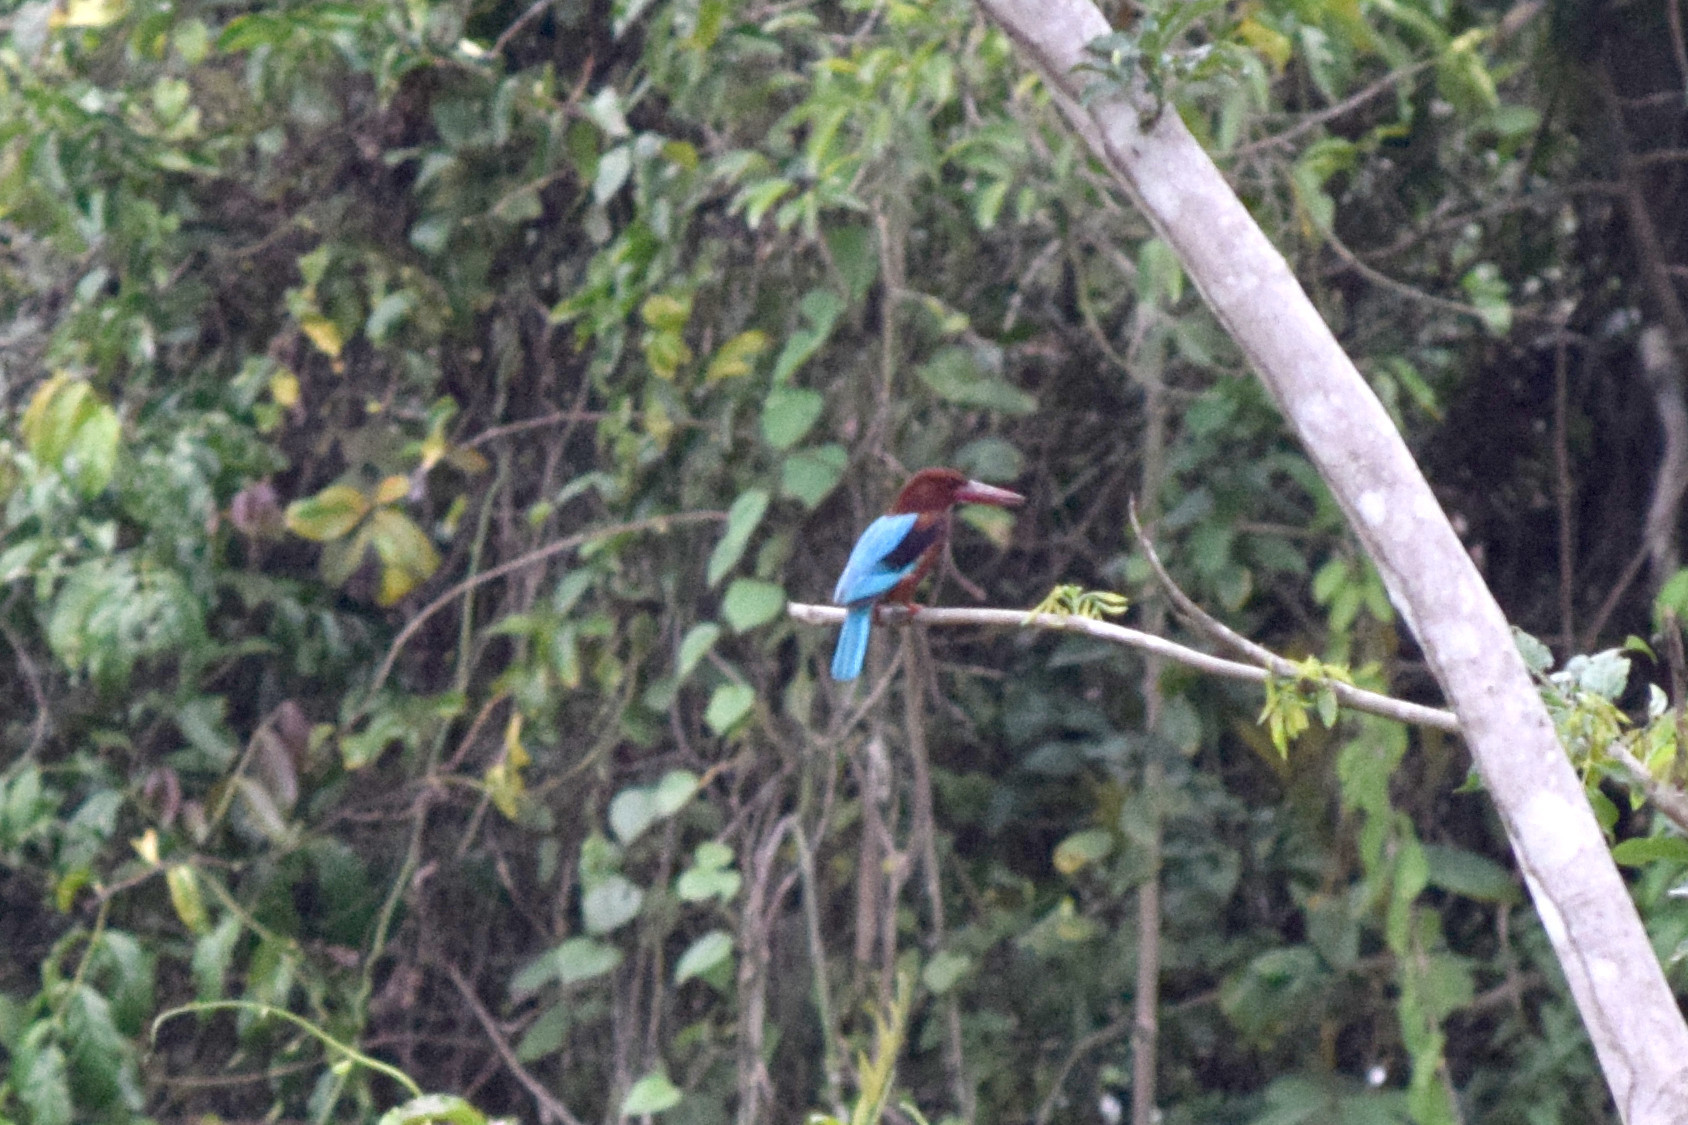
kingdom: Animalia
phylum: Chordata
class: Aves
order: Coraciiformes
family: Alcedinidae
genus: Halcyon
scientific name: Halcyon smyrnensis
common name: White-throated kingfisher
